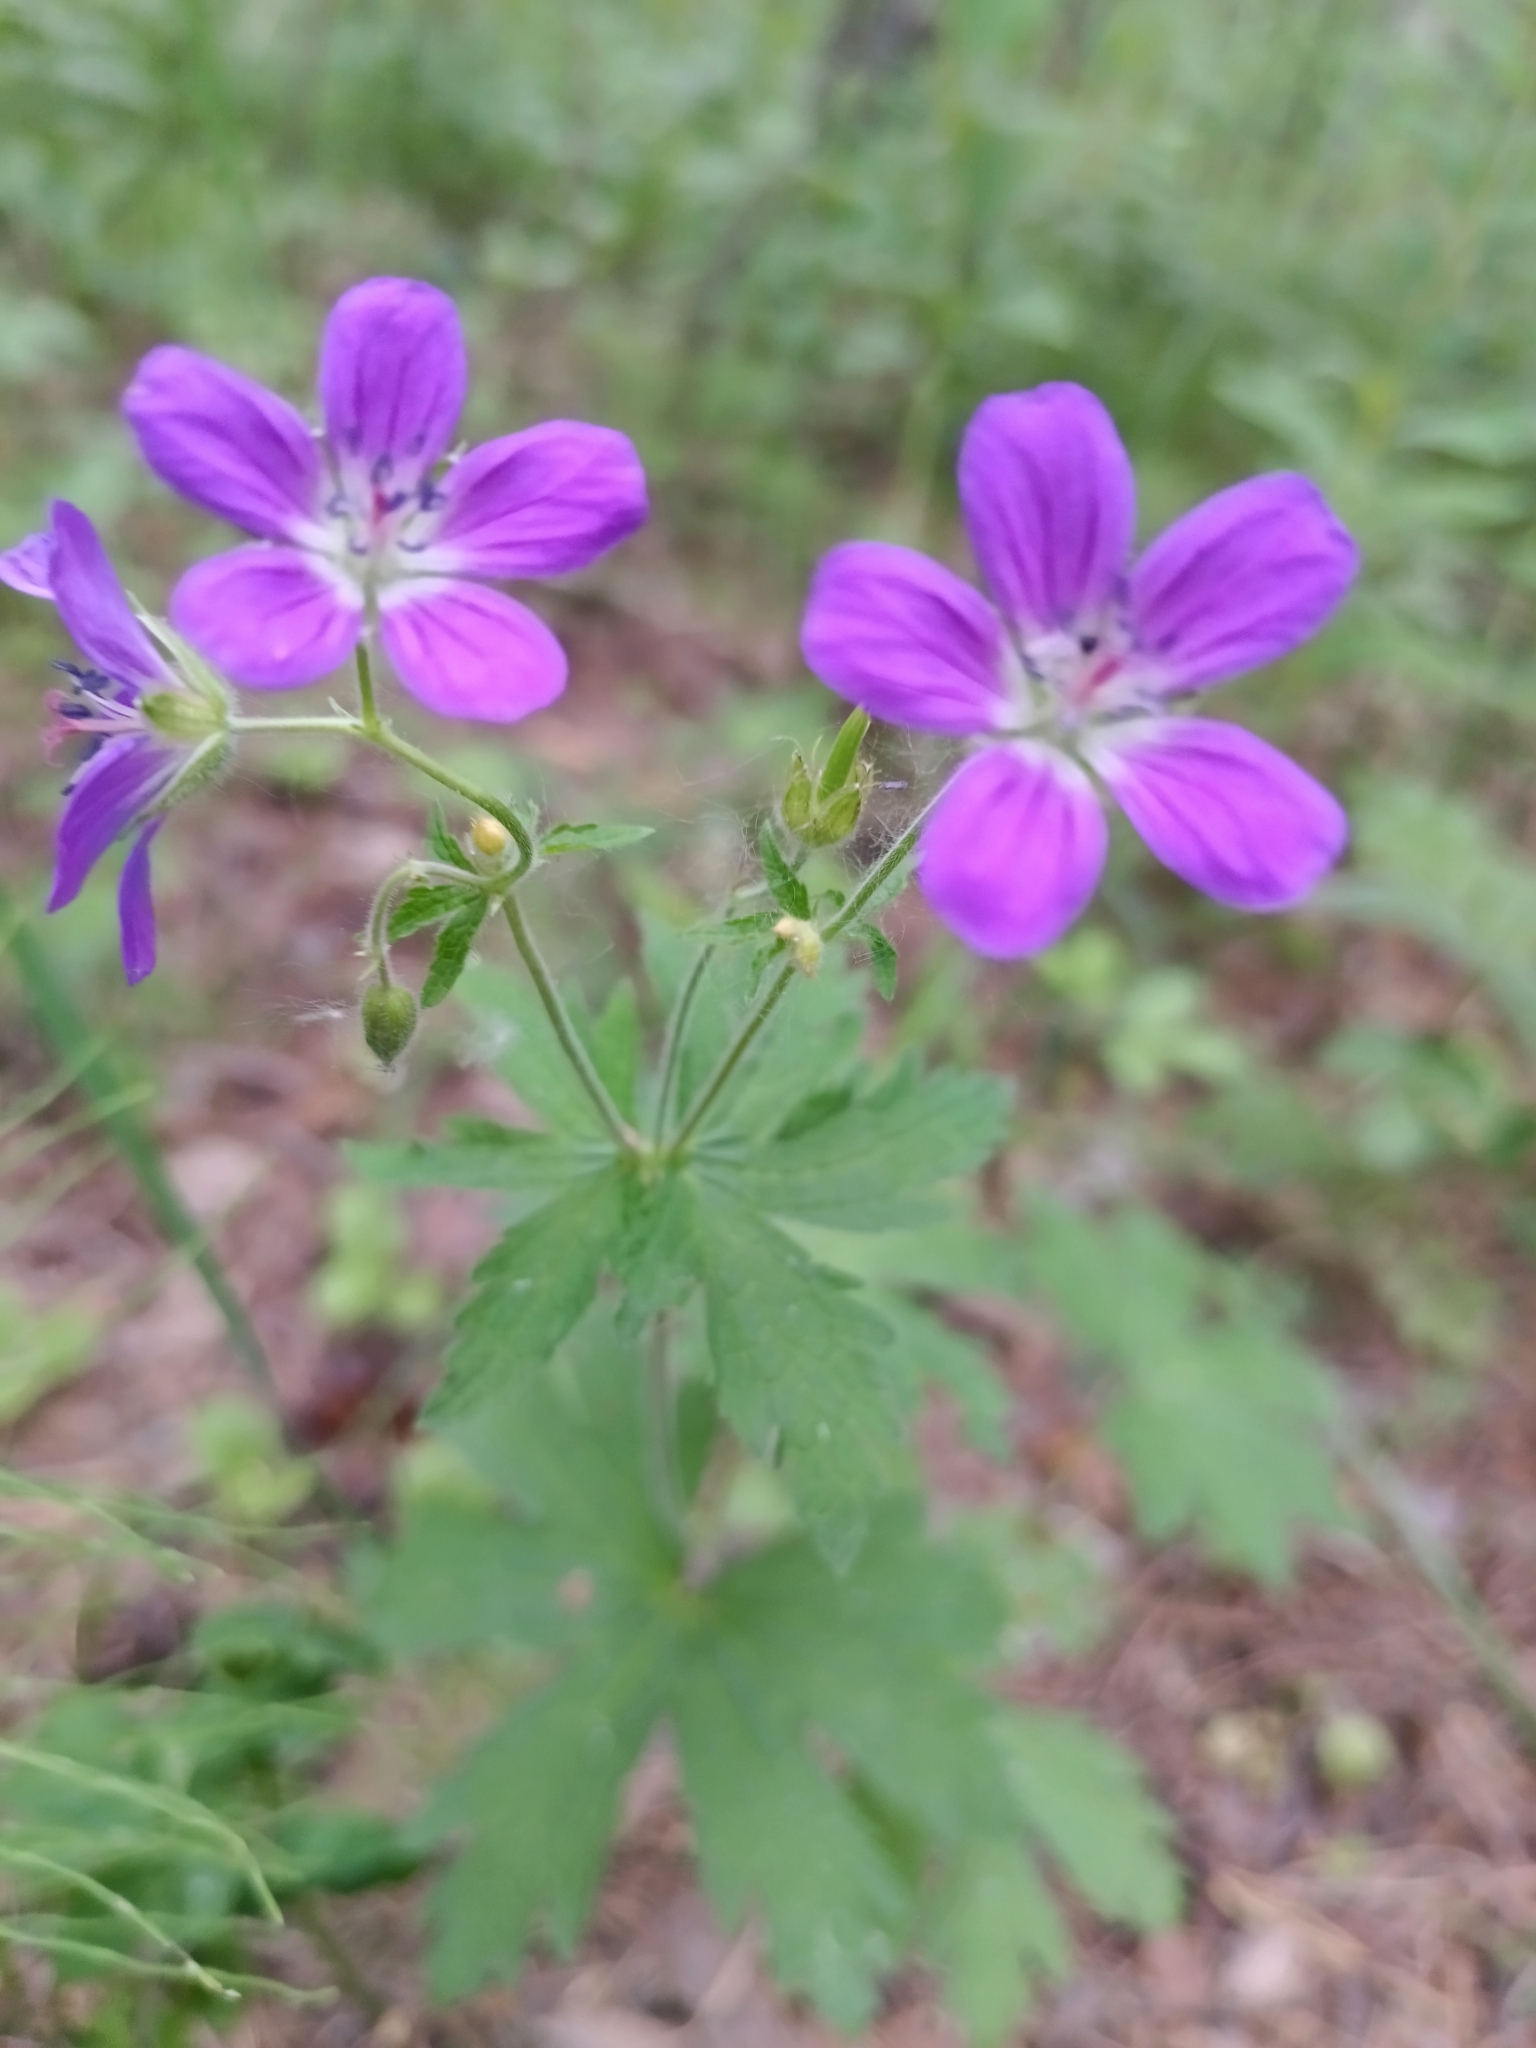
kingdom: Plantae
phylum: Tracheophyta
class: Magnoliopsida
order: Geraniales
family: Geraniaceae
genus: Geranium
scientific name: Geranium sylvaticum
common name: Wood crane's-bill
